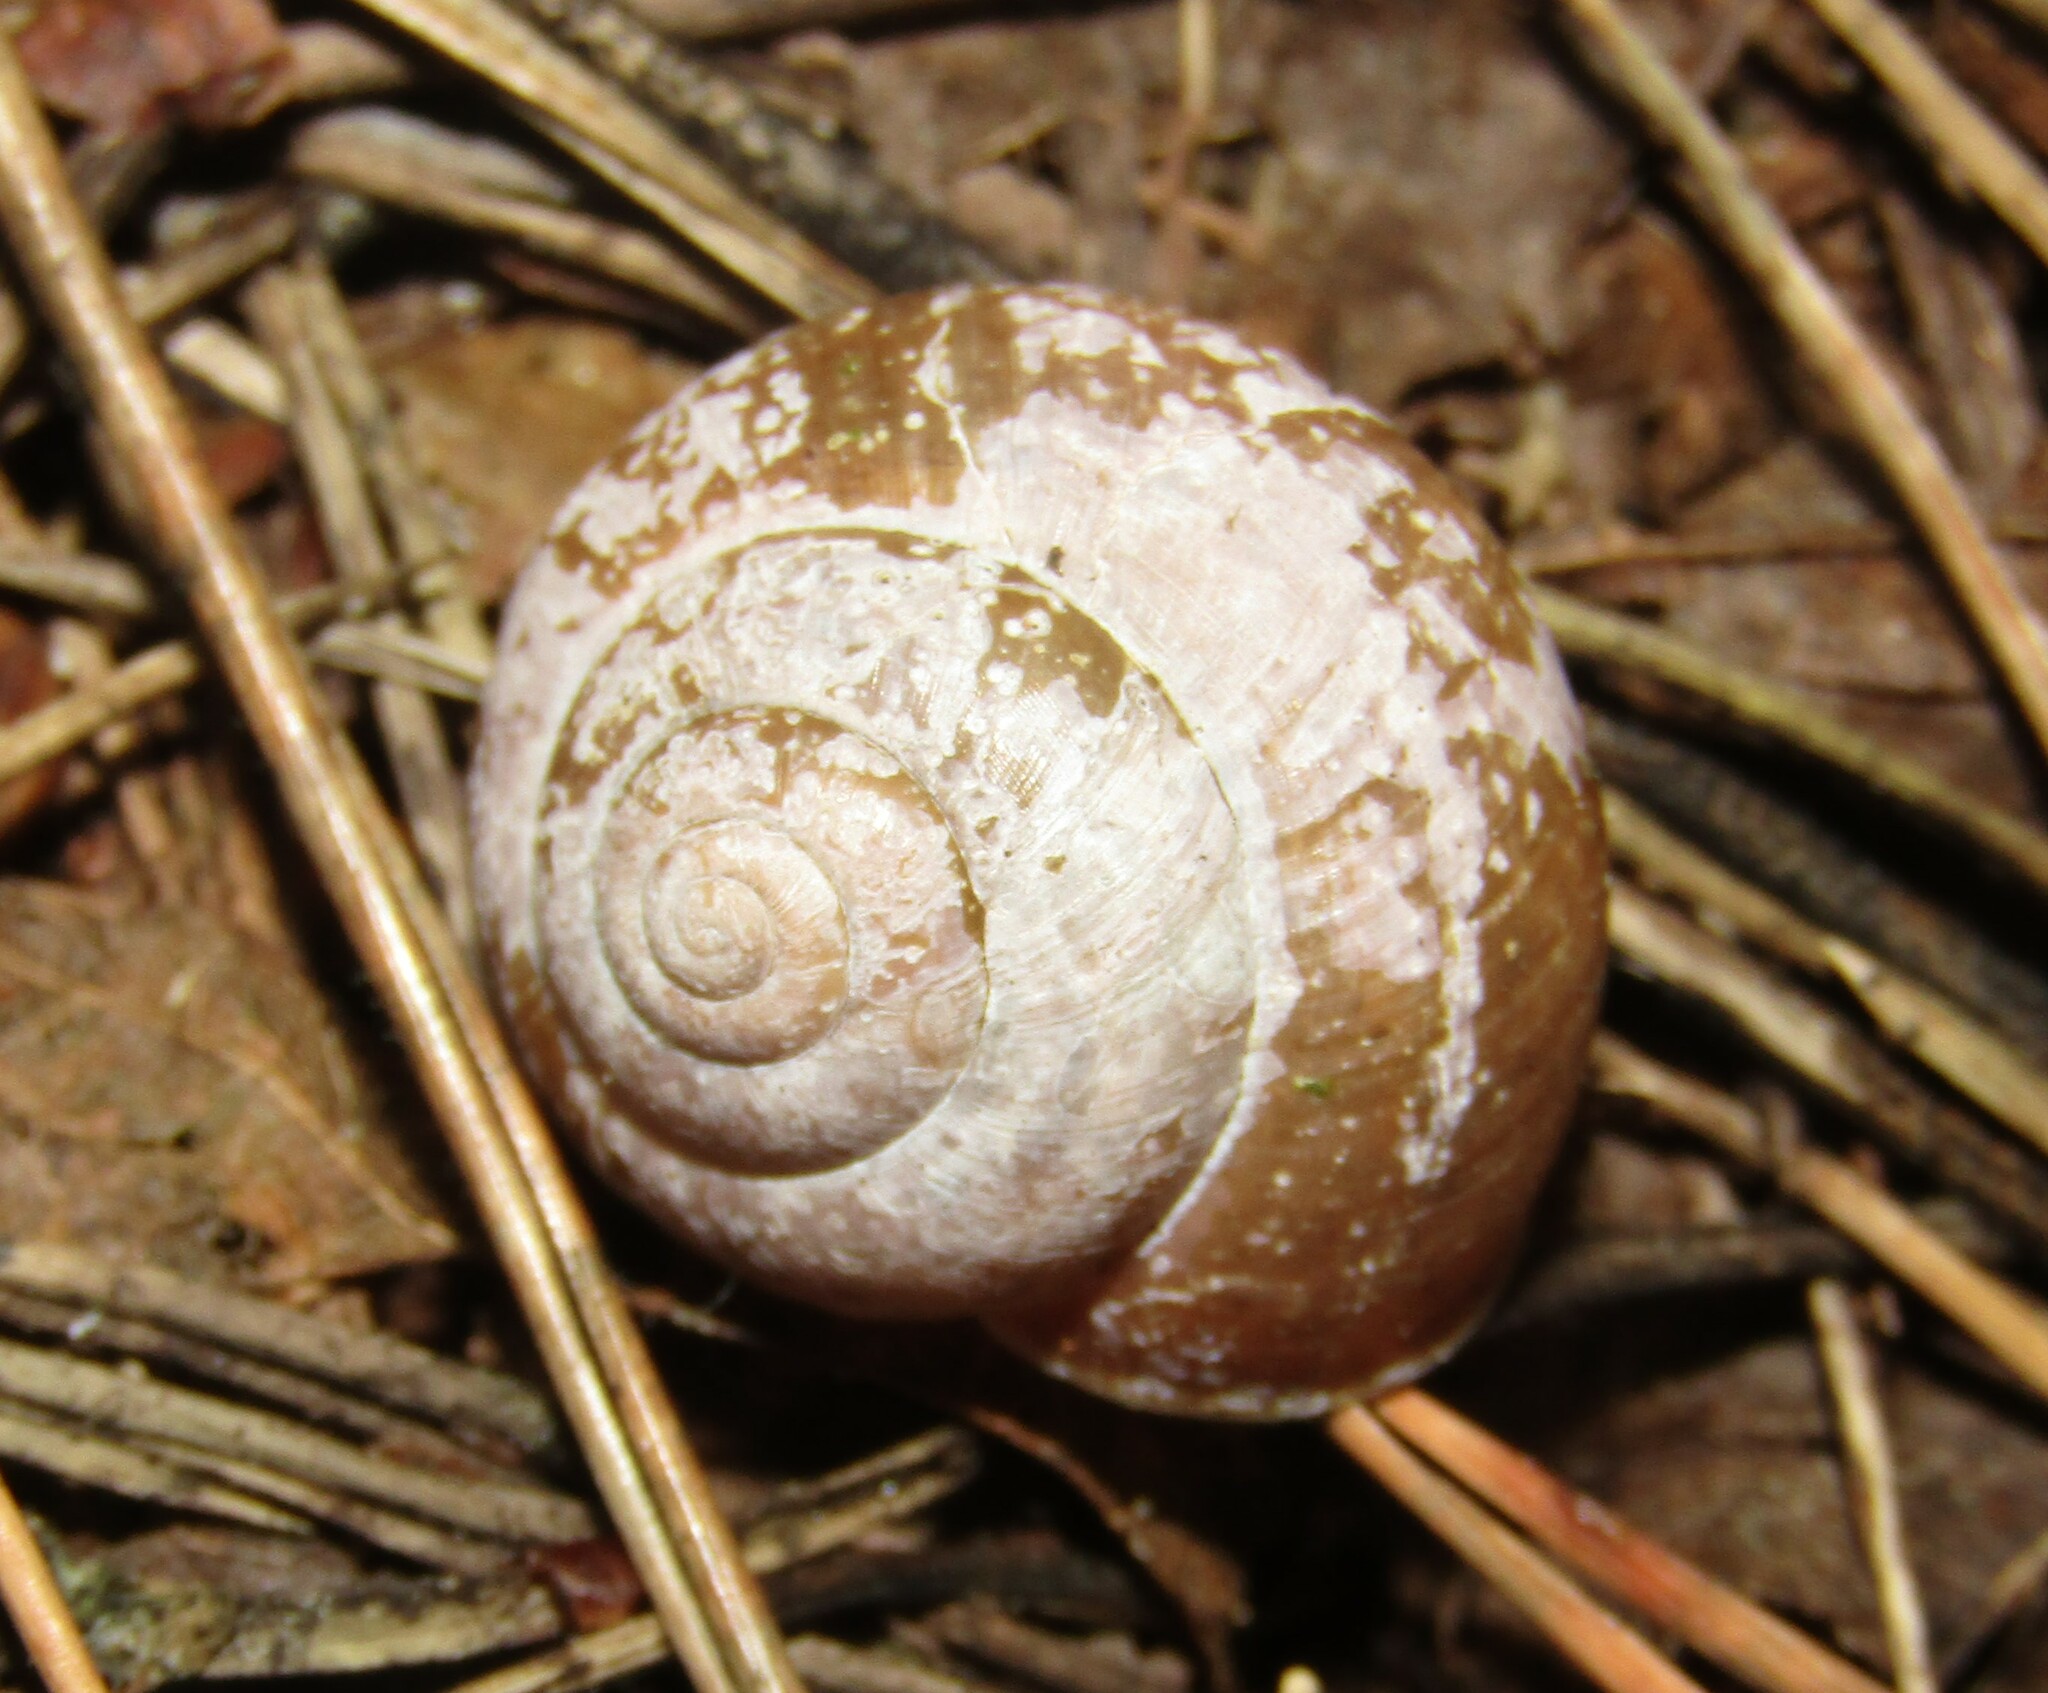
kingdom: Animalia
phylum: Mollusca
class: Gastropoda
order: Stylommatophora
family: Camaenidae
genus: Fruticicola
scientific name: Fruticicola fruticum
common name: Bush snail
